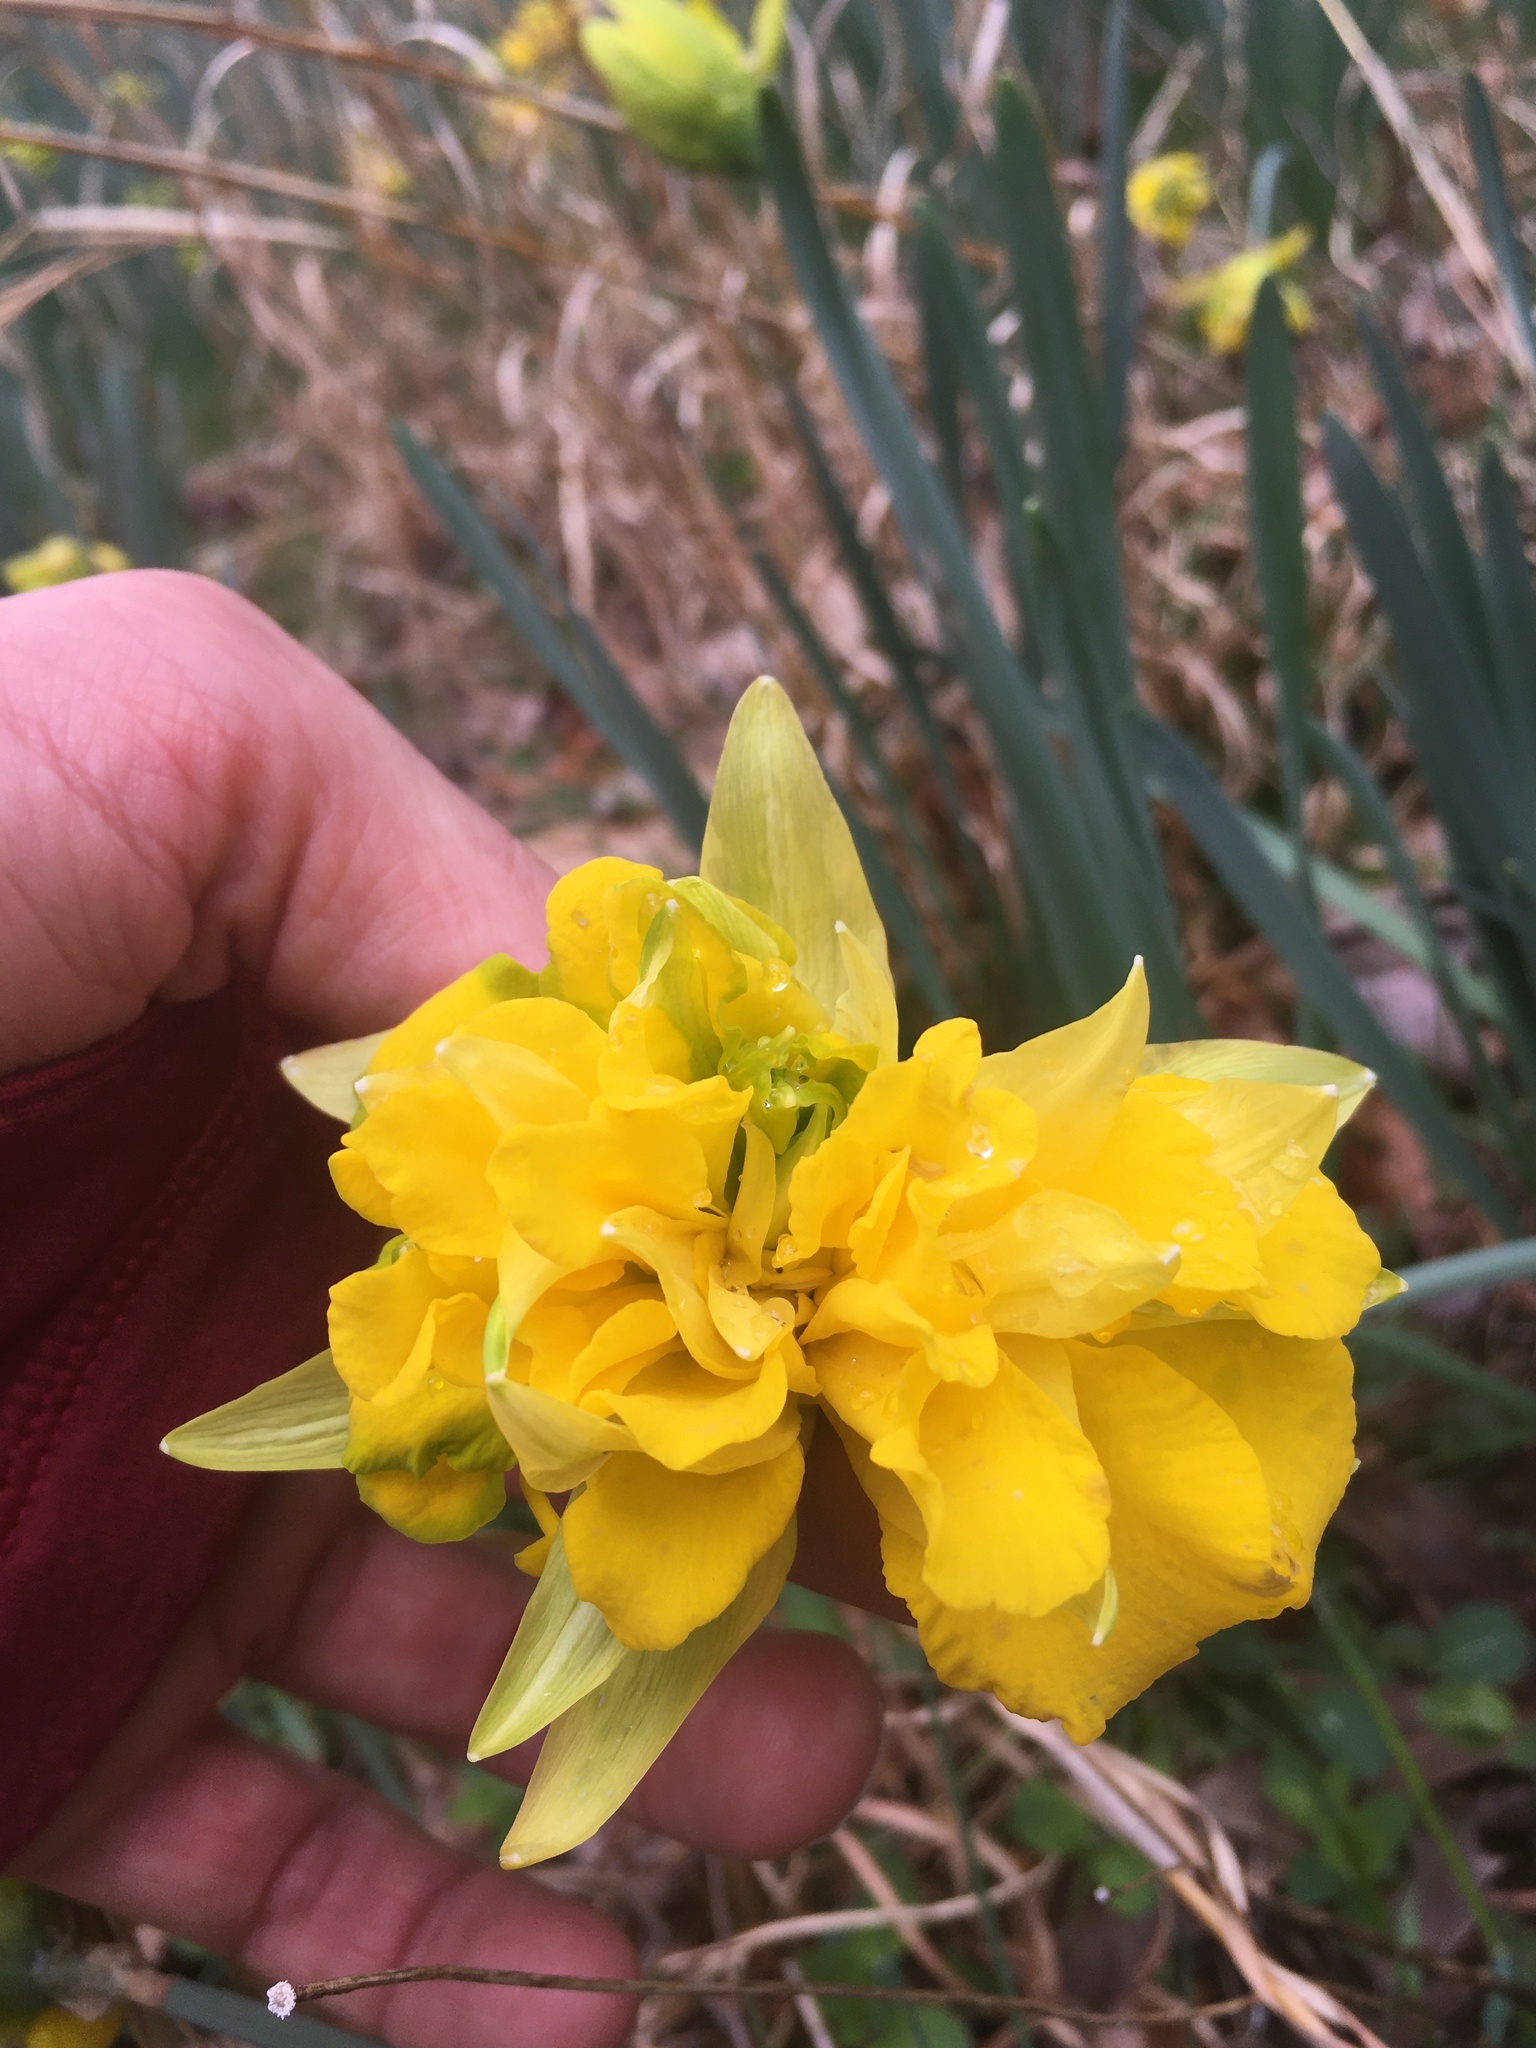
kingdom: Plantae
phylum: Tracheophyta
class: Liliopsida
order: Asparagales
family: Amaryllidaceae
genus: Narcissus
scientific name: Narcissus pseudonarcissus
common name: Daffodil
